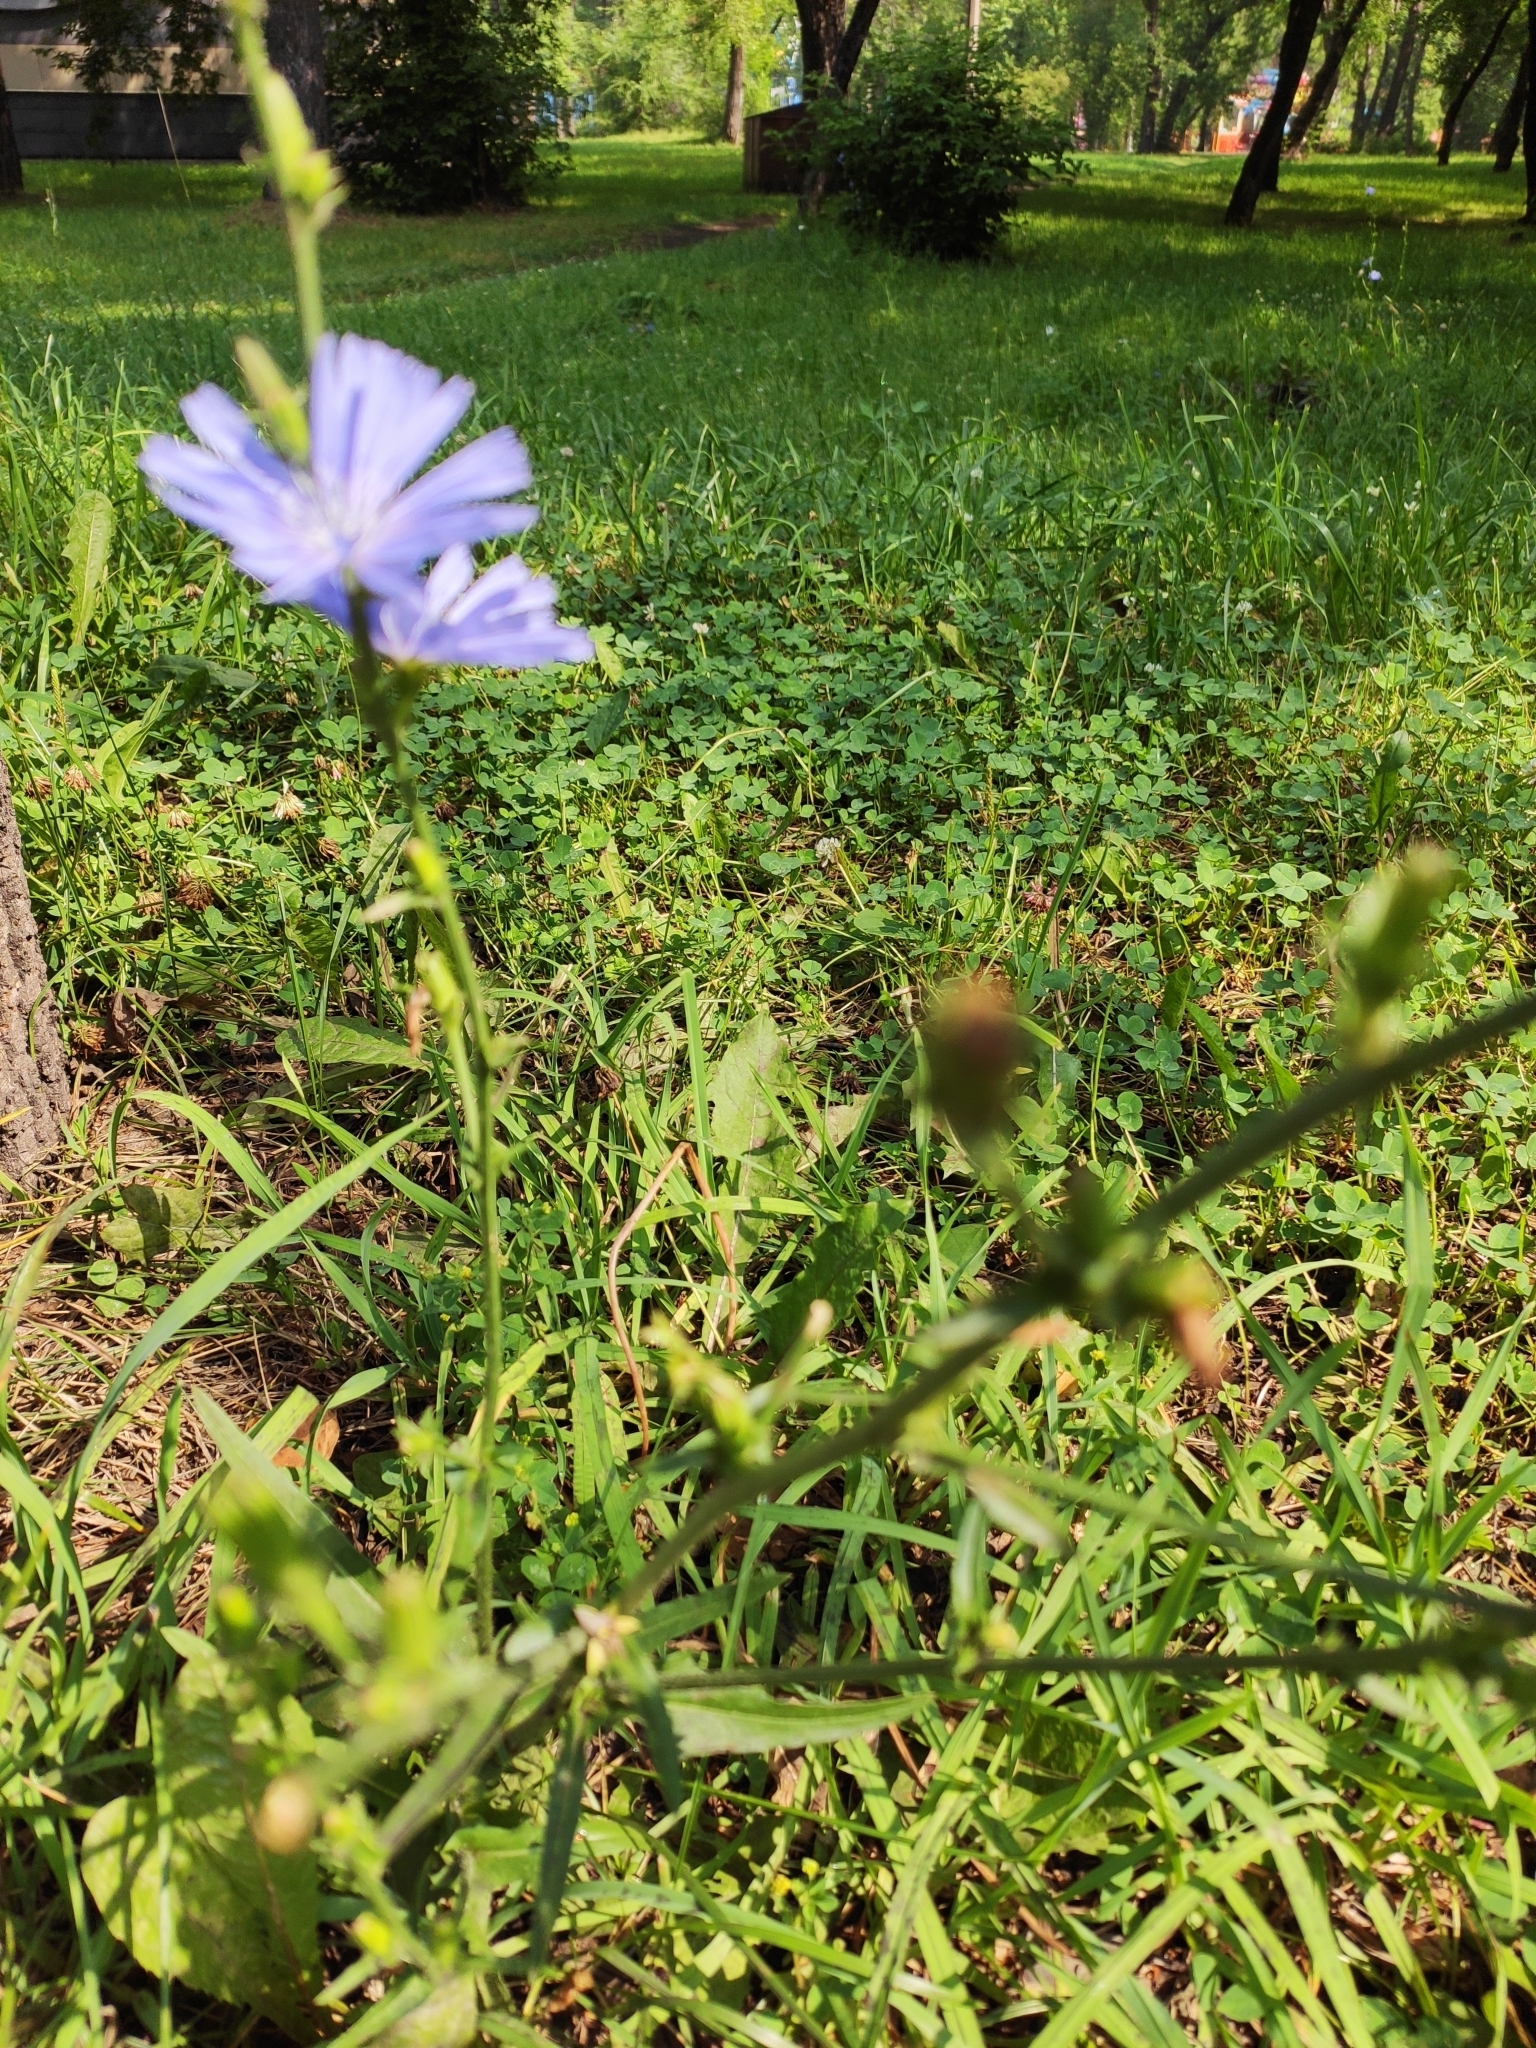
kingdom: Plantae
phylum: Tracheophyta
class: Magnoliopsida
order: Asterales
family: Asteraceae
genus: Cichorium
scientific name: Cichorium intybus
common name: Chicory
